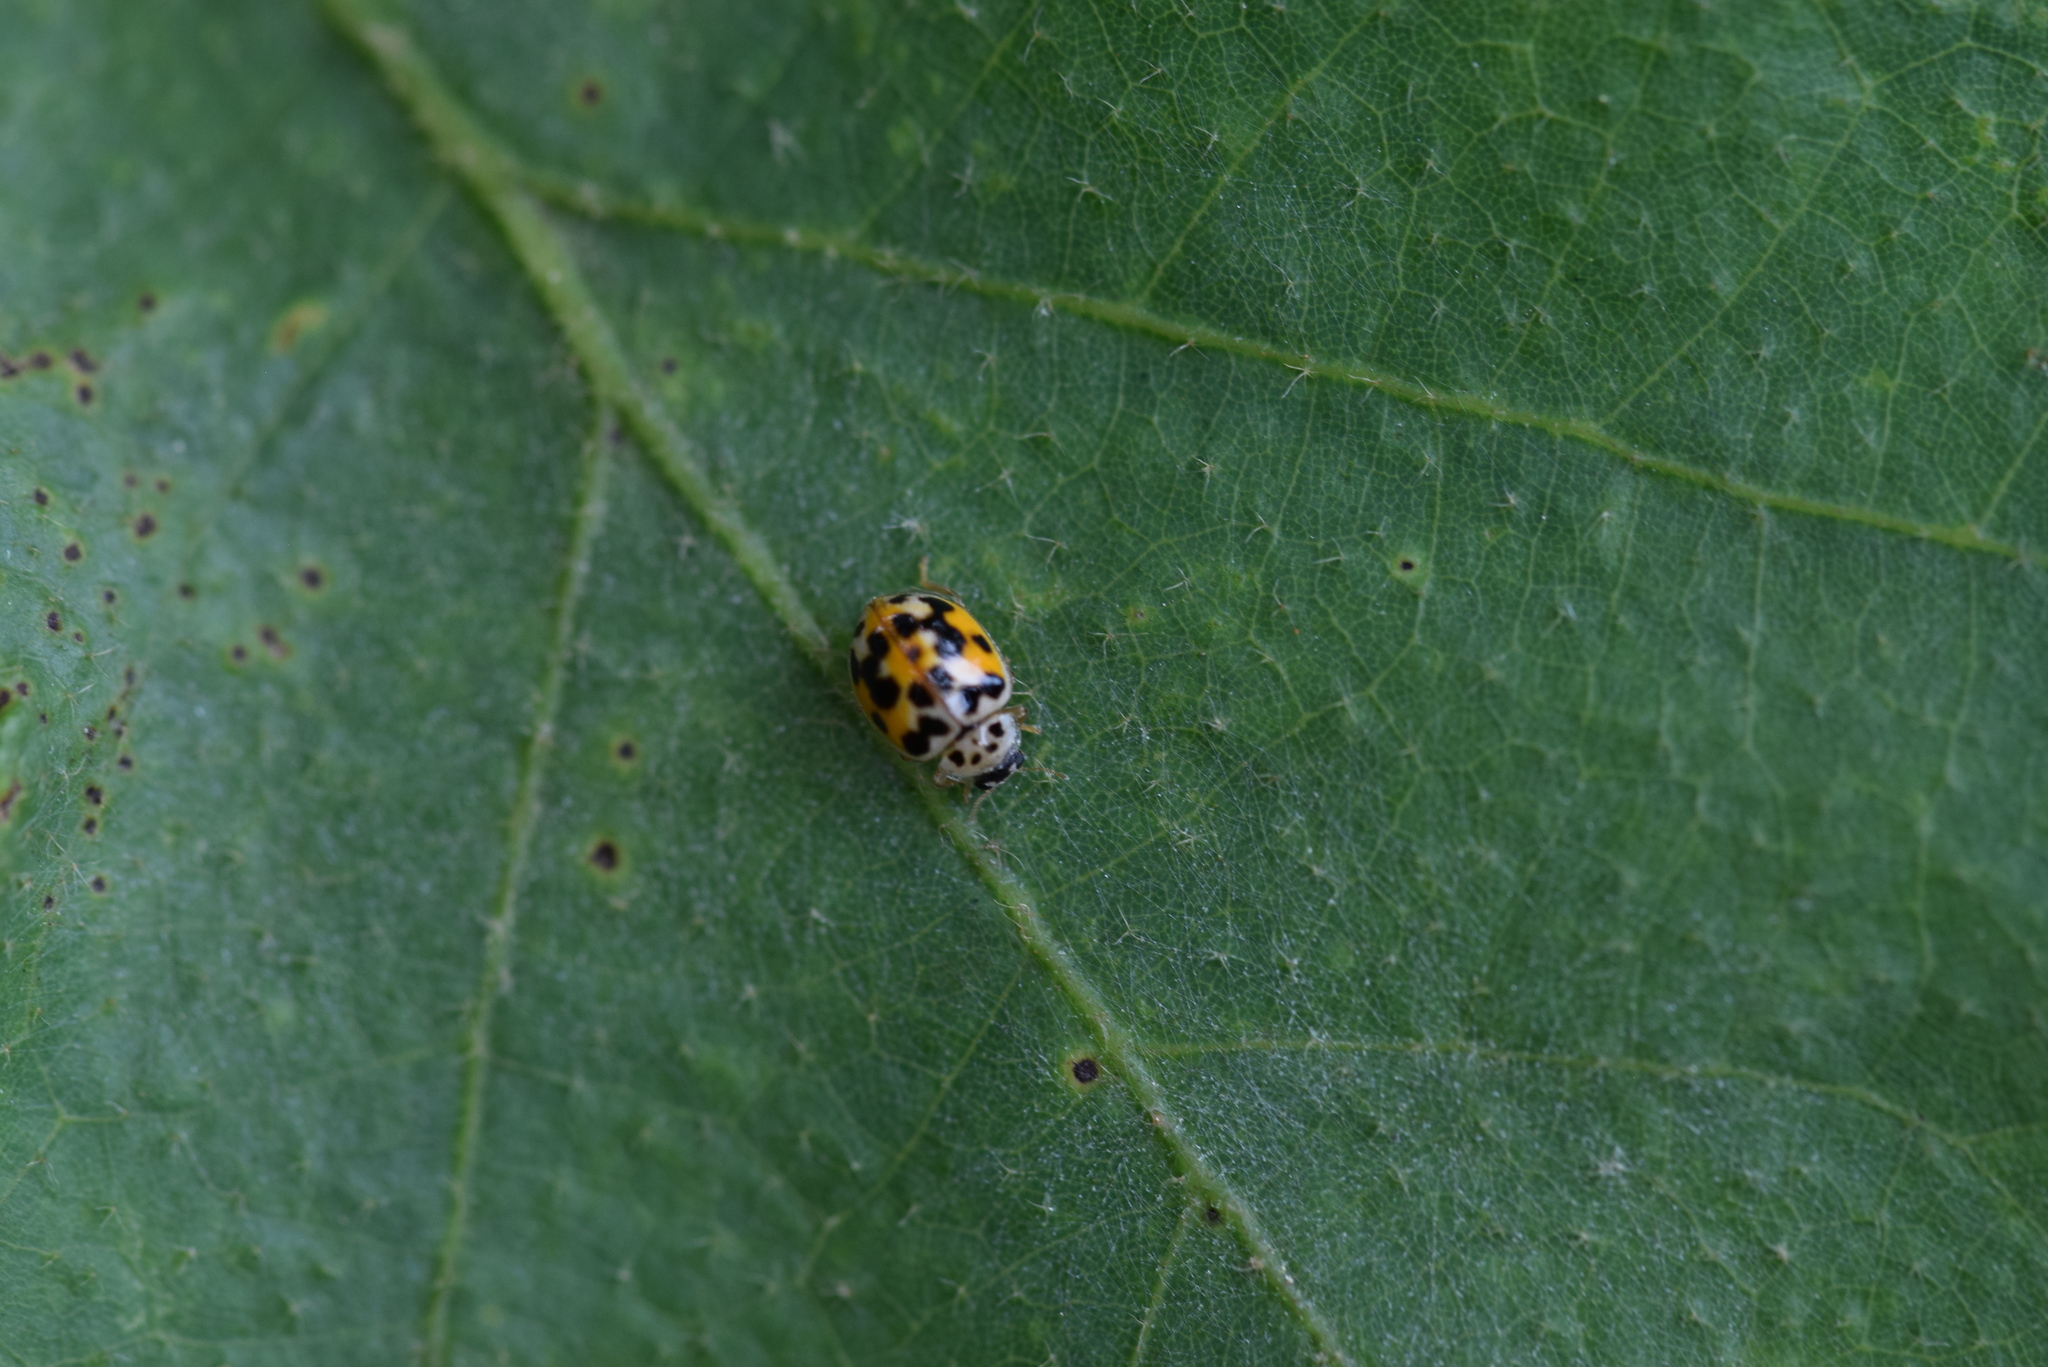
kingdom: Animalia
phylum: Arthropoda
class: Insecta
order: Coleoptera
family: Coccinellidae
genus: Psyllobora
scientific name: Psyllobora vigintimaculata
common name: Ladybird beetle
